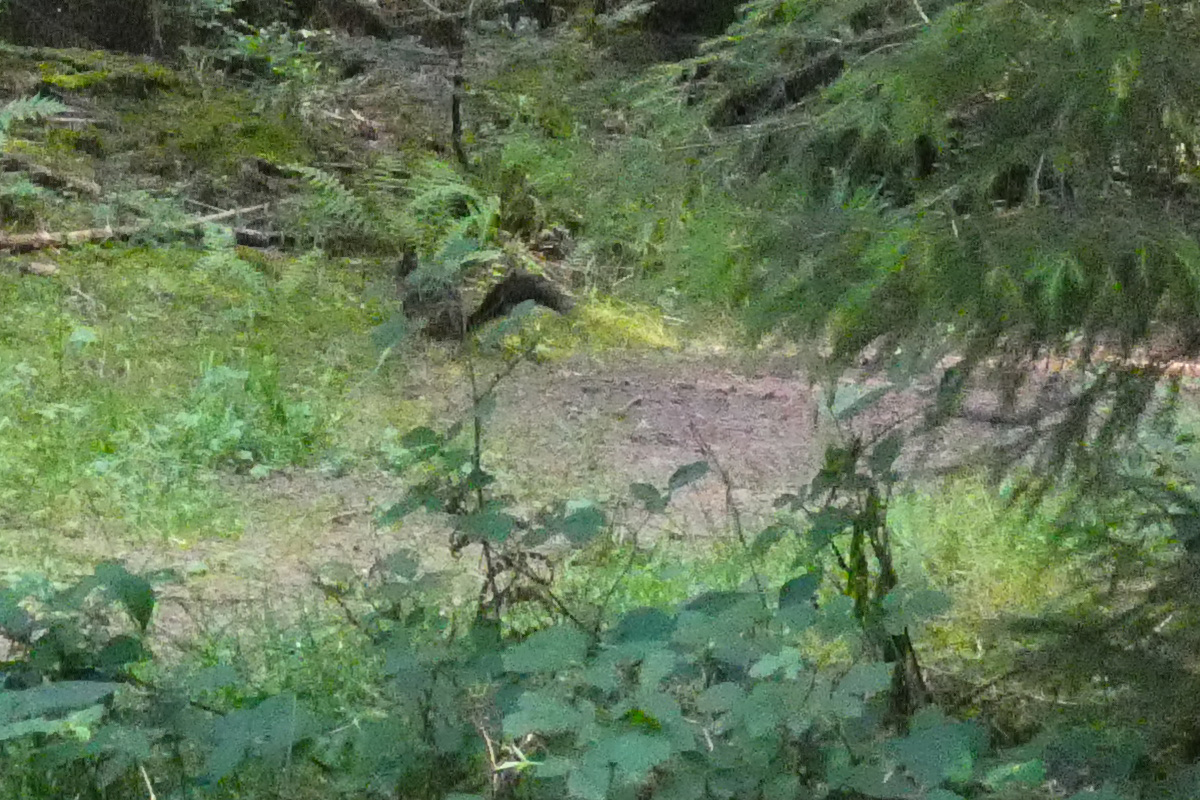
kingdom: Animalia
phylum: Chordata
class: Mammalia
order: Rodentia
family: Sciuridae
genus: Sciurus
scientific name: Sciurus vulgaris
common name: Eurasian red squirrel
